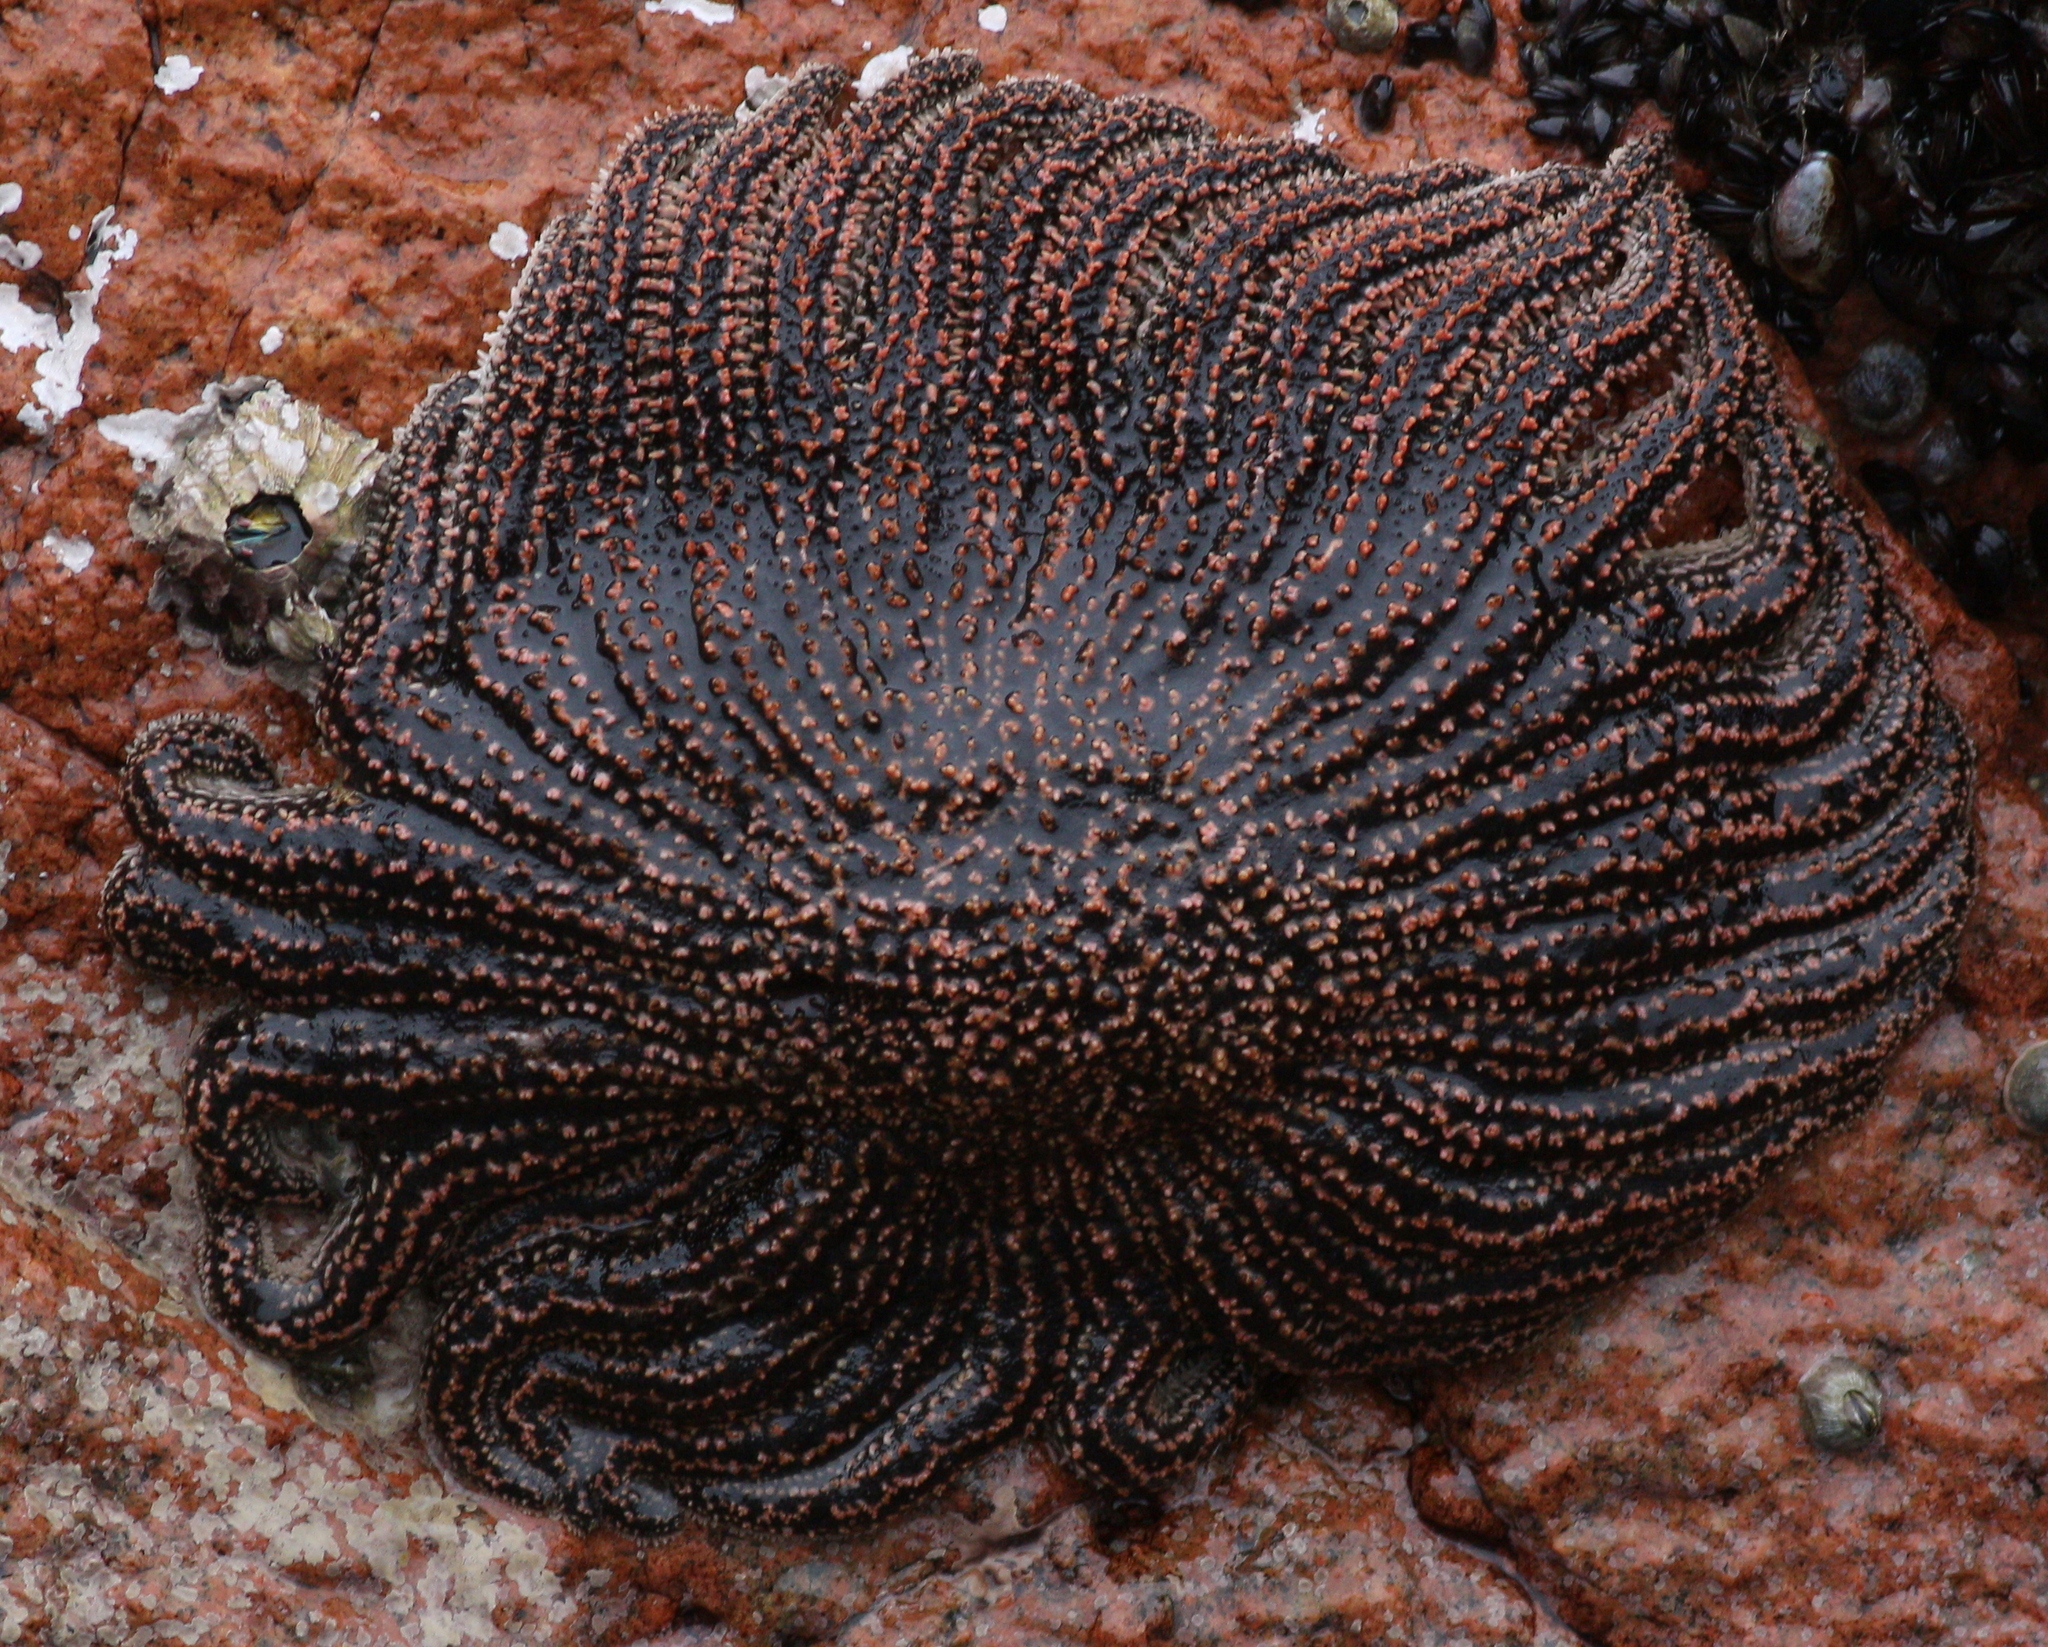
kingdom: Animalia
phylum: Echinodermata
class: Asteroidea
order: Forcipulatida
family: Heliasteridae
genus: Heliaster
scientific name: Heliaster helianthus
